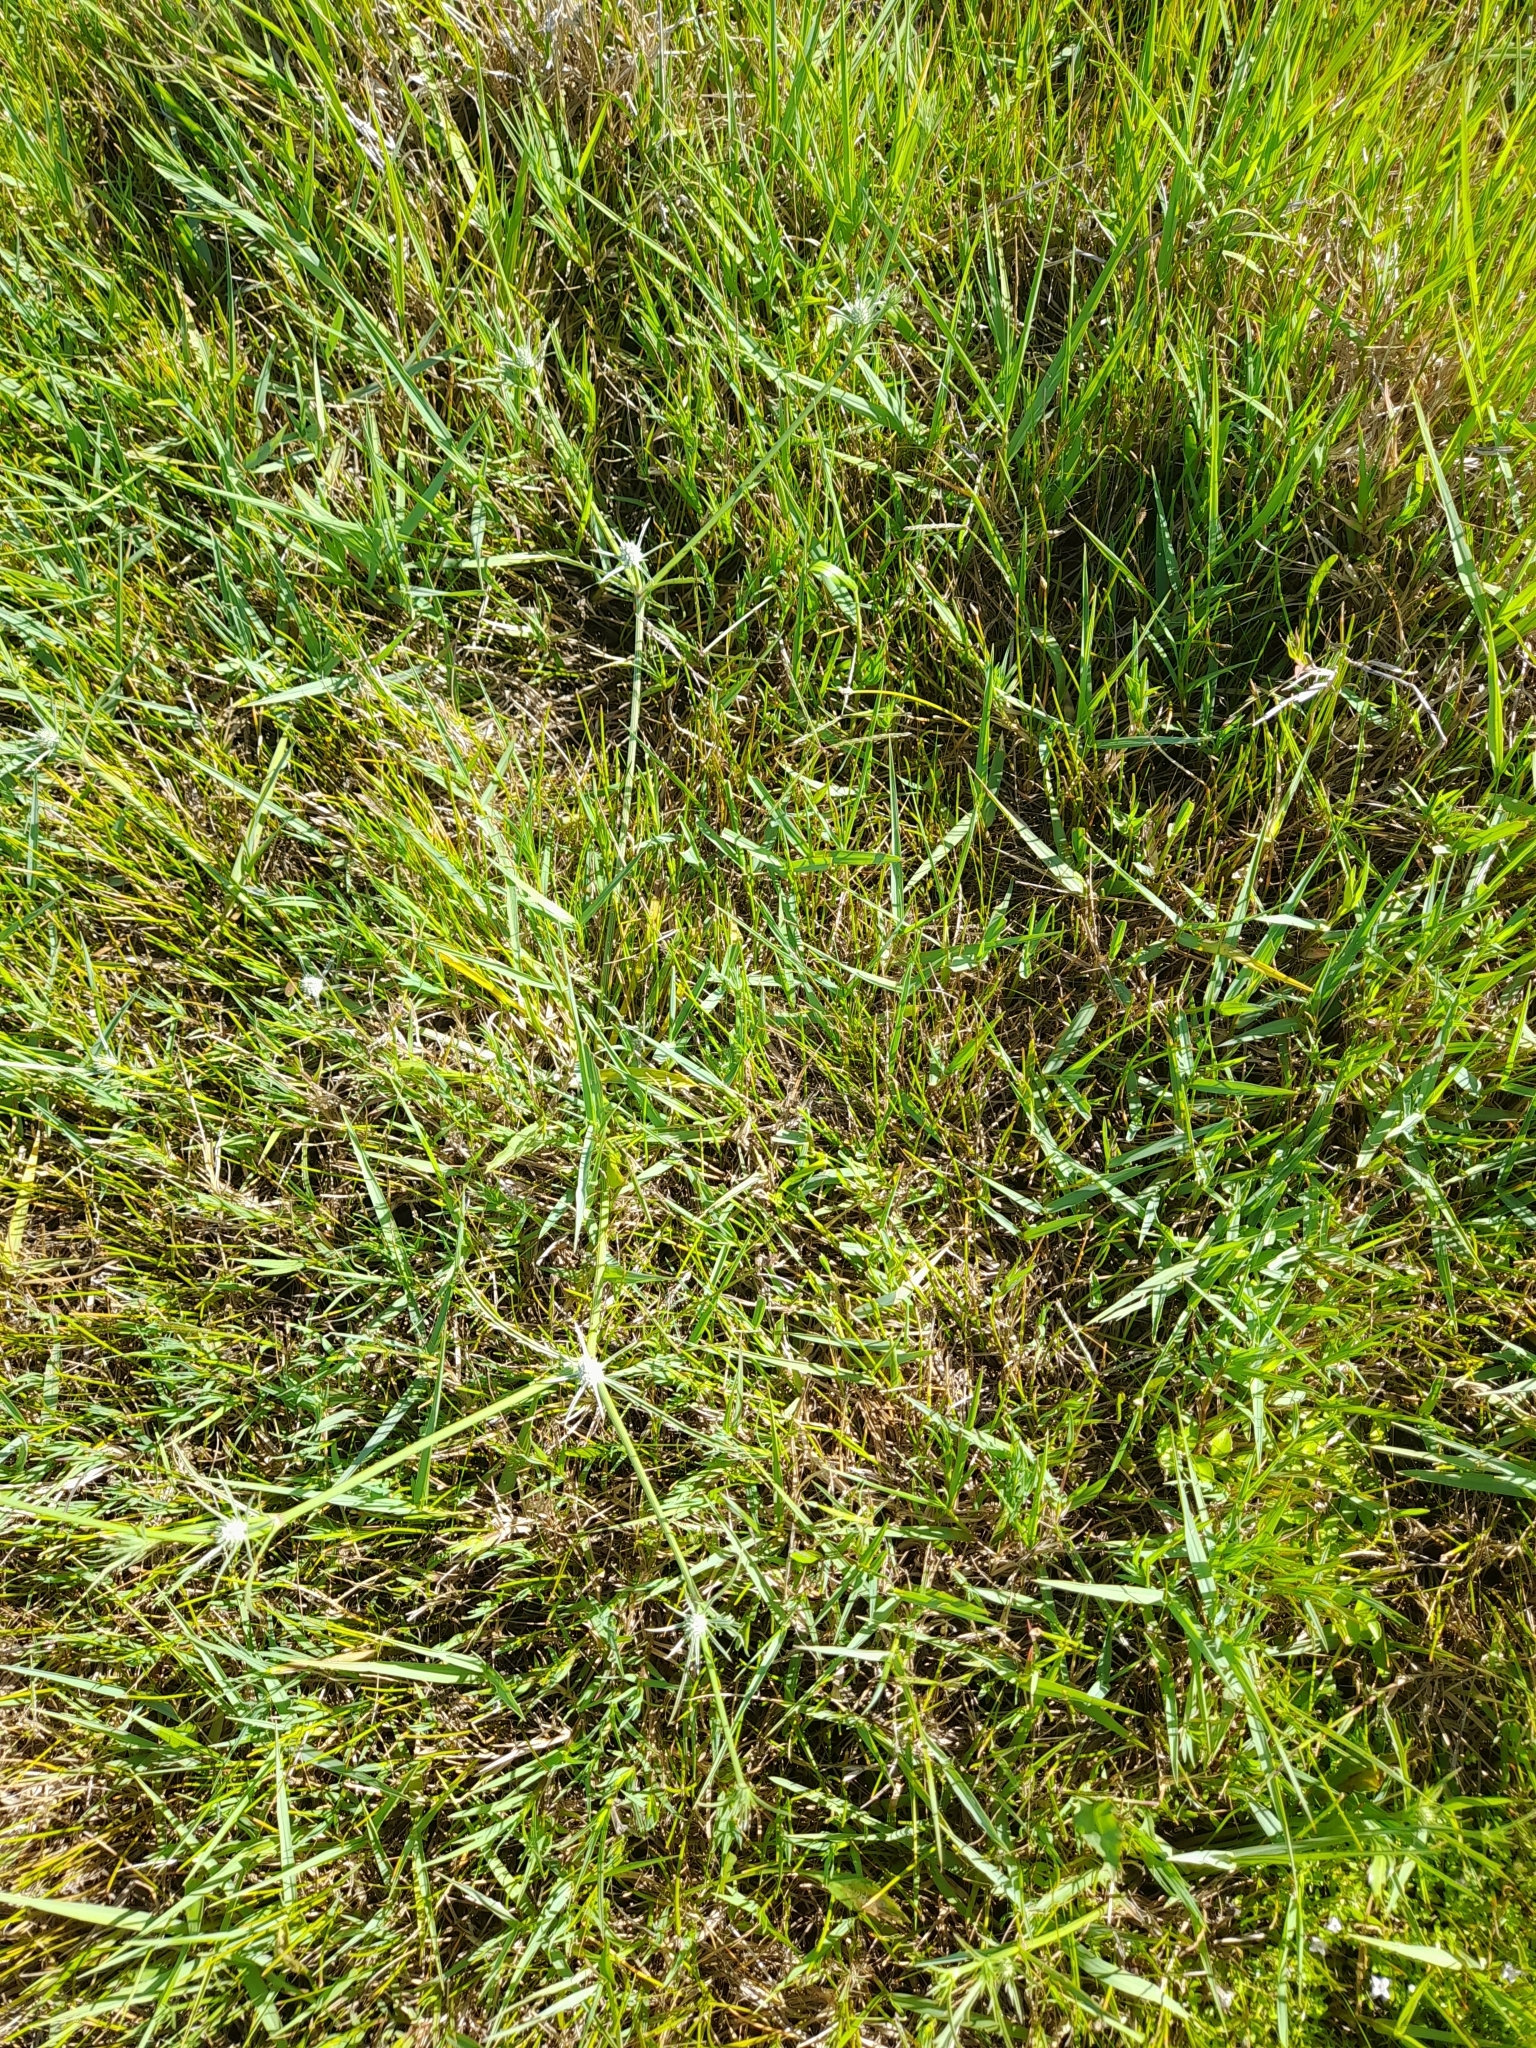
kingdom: Plantae
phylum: Tracheophyta
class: Magnoliopsida
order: Apiales
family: Apiaceae
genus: Eryngium
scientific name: Eryngium echinatum
